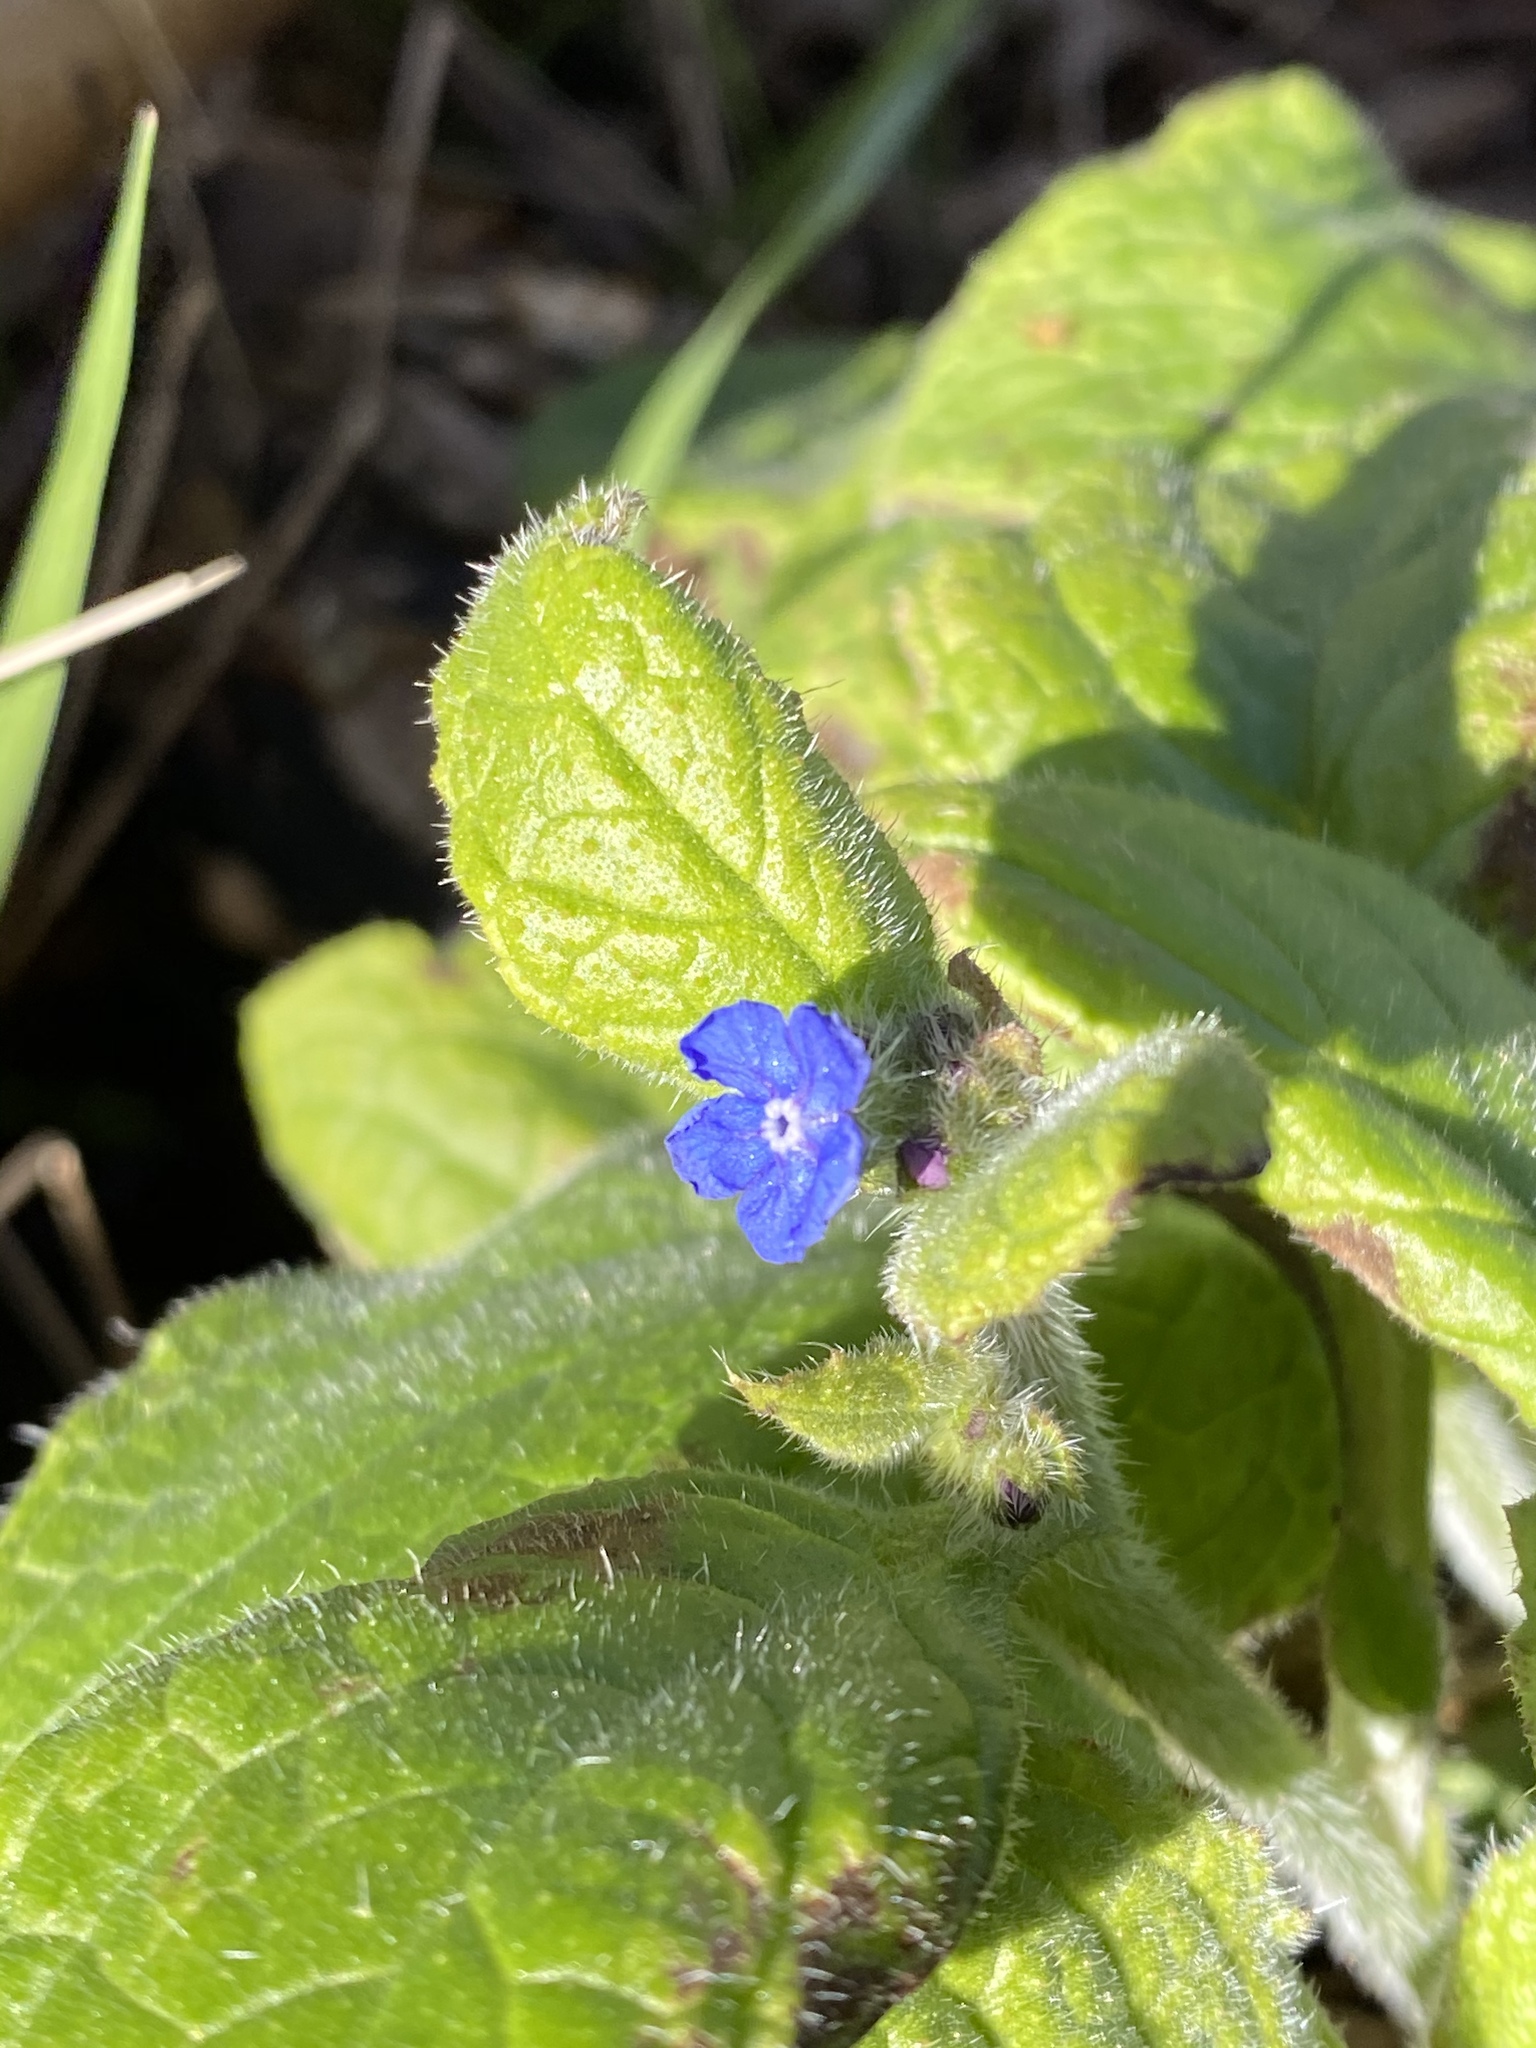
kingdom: Plantae
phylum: Tracheophyta
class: Magnoliopsida
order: Boraginales
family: Boraginaceae
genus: Pentaglottis
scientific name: Pentaglottis sempervirens
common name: Green alkanet
